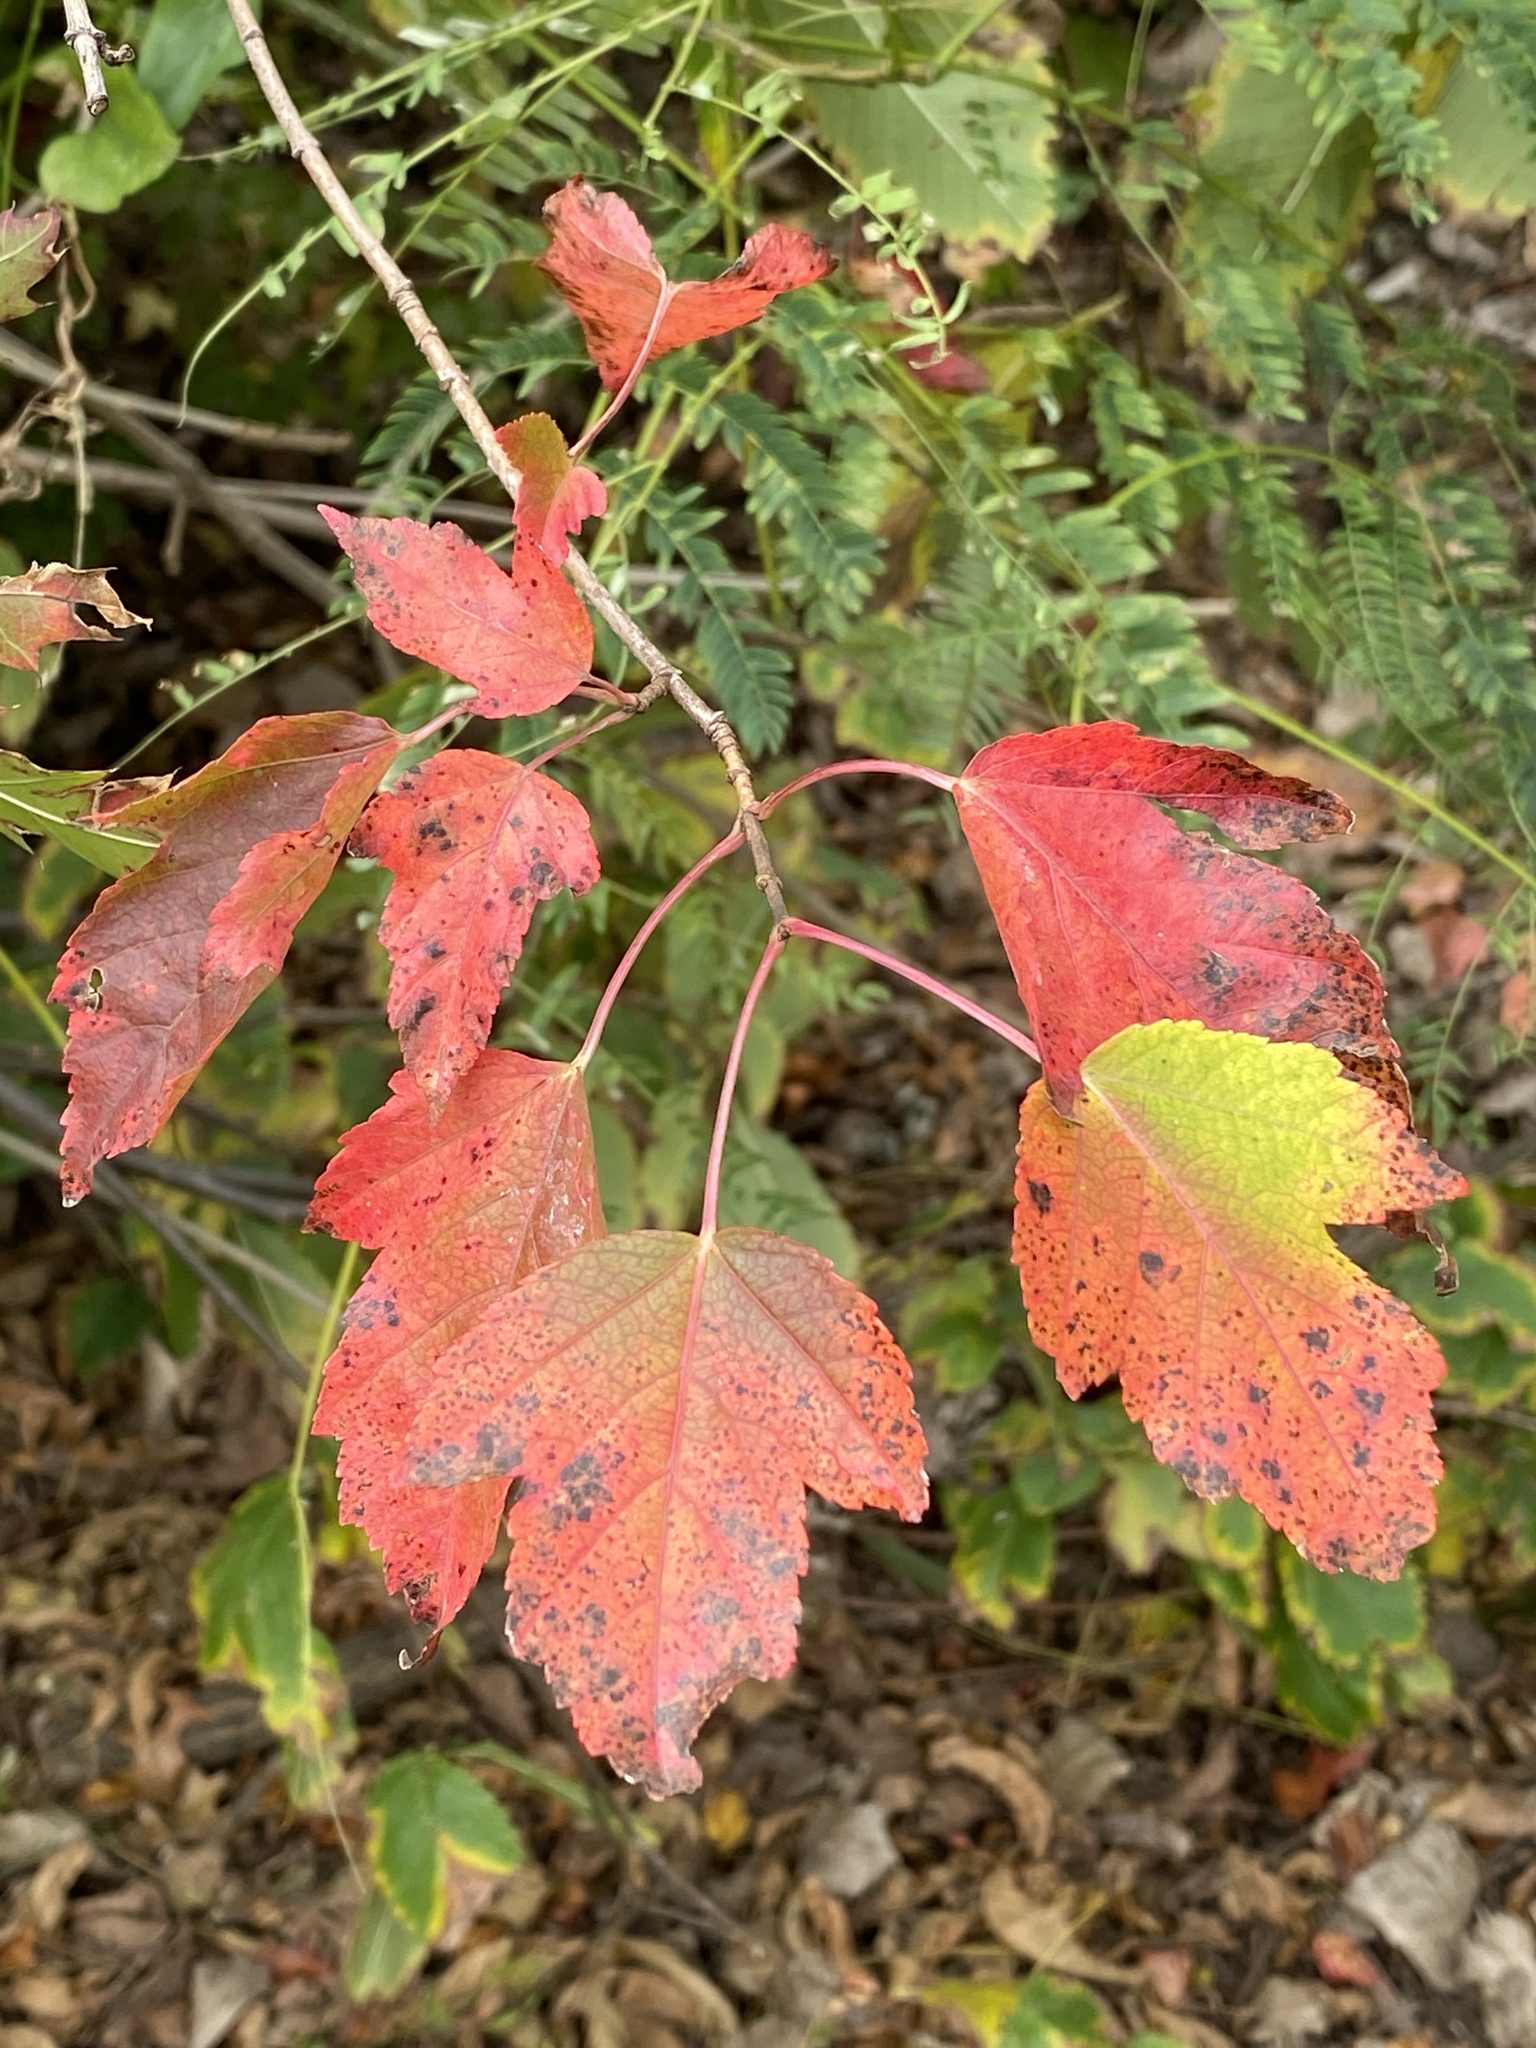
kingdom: Plantae
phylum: Tracheophyta
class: Magnoliopsida
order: Sapindales
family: Sapindaceae
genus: Acer
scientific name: Acer rubrum
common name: Red maple
